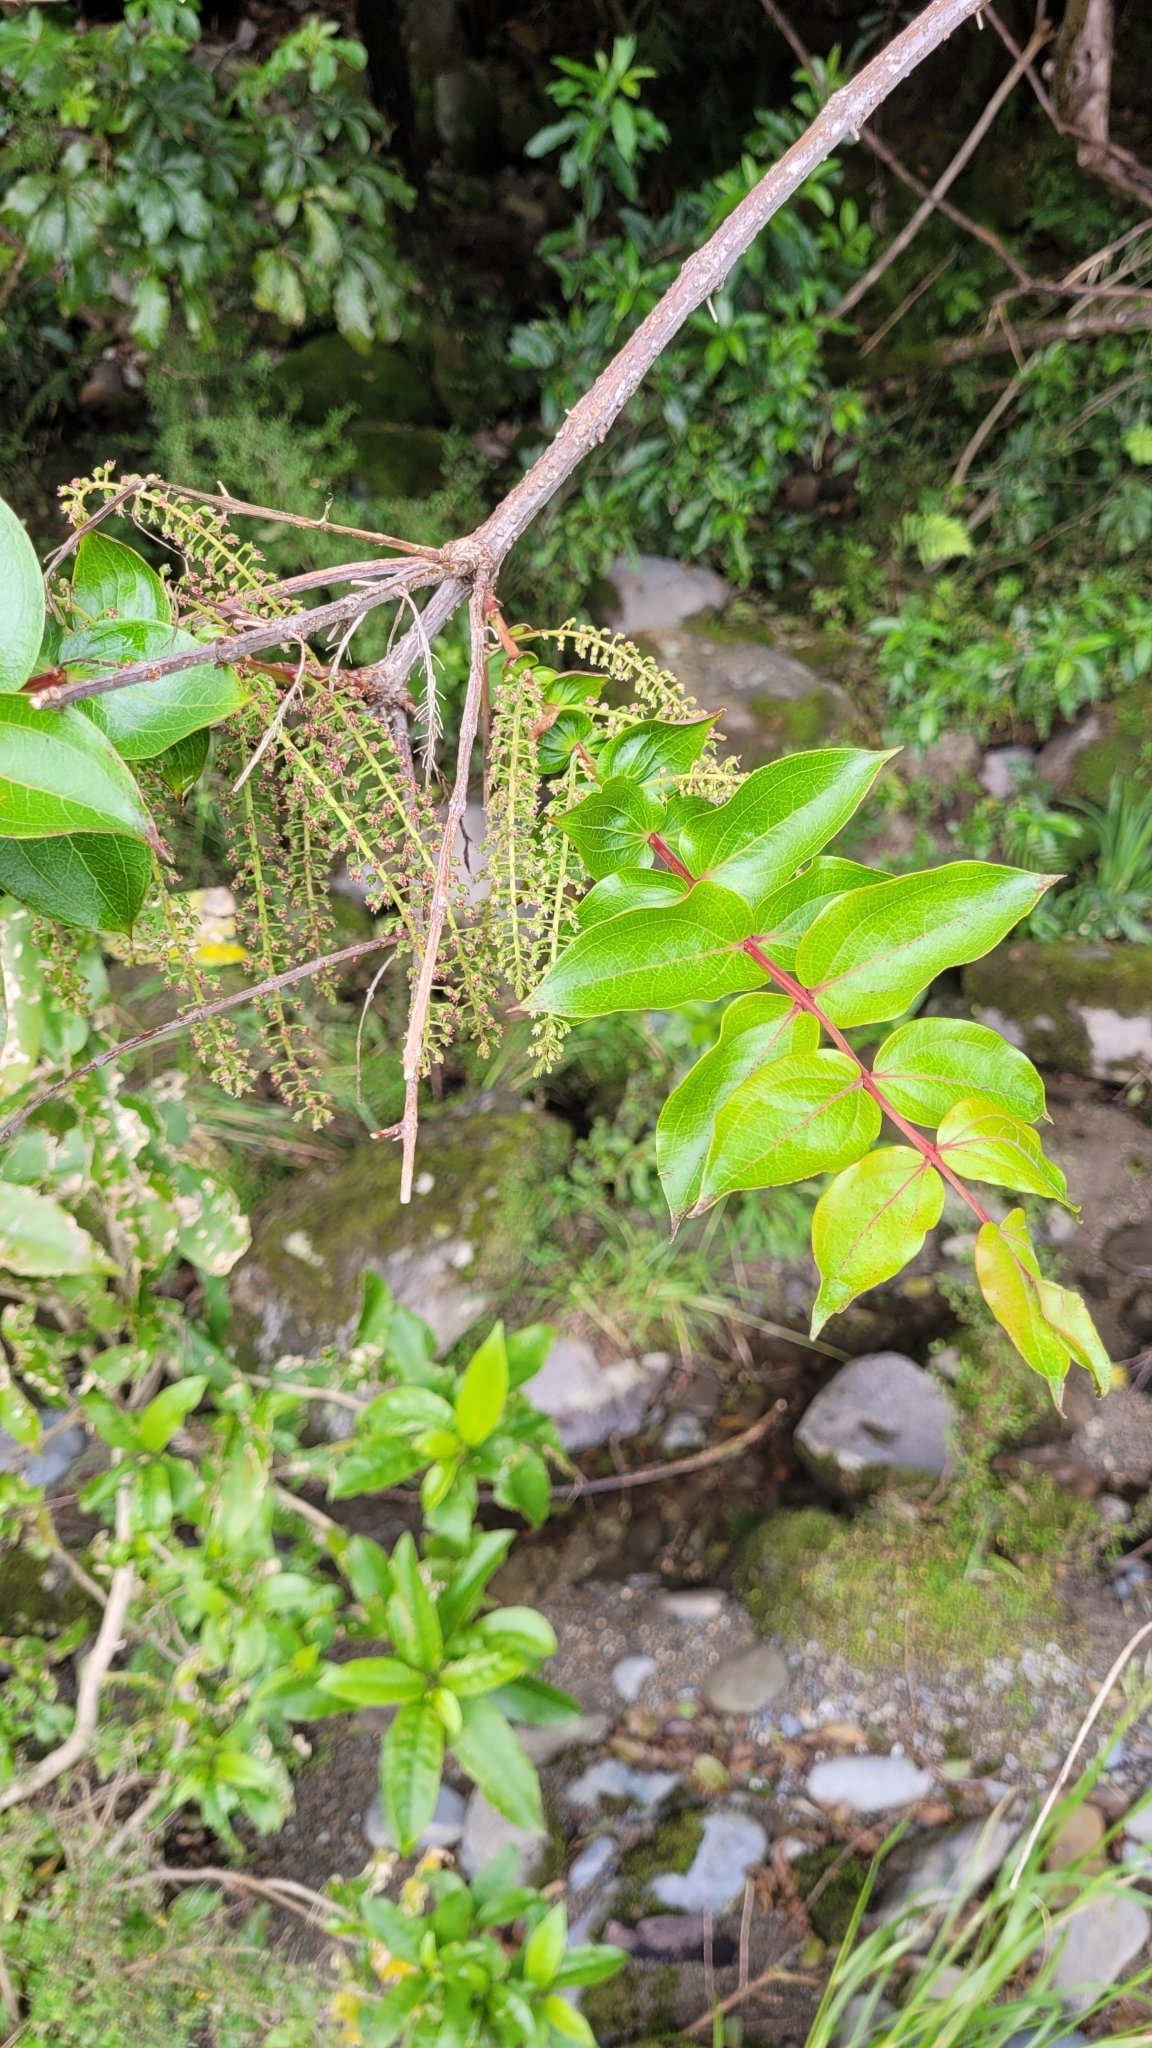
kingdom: Plantae
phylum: Tracheophyta
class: Magnoliopsida
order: Cucurbitales
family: Coriariaceae
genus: Coriaria
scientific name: Coriaria arborea
